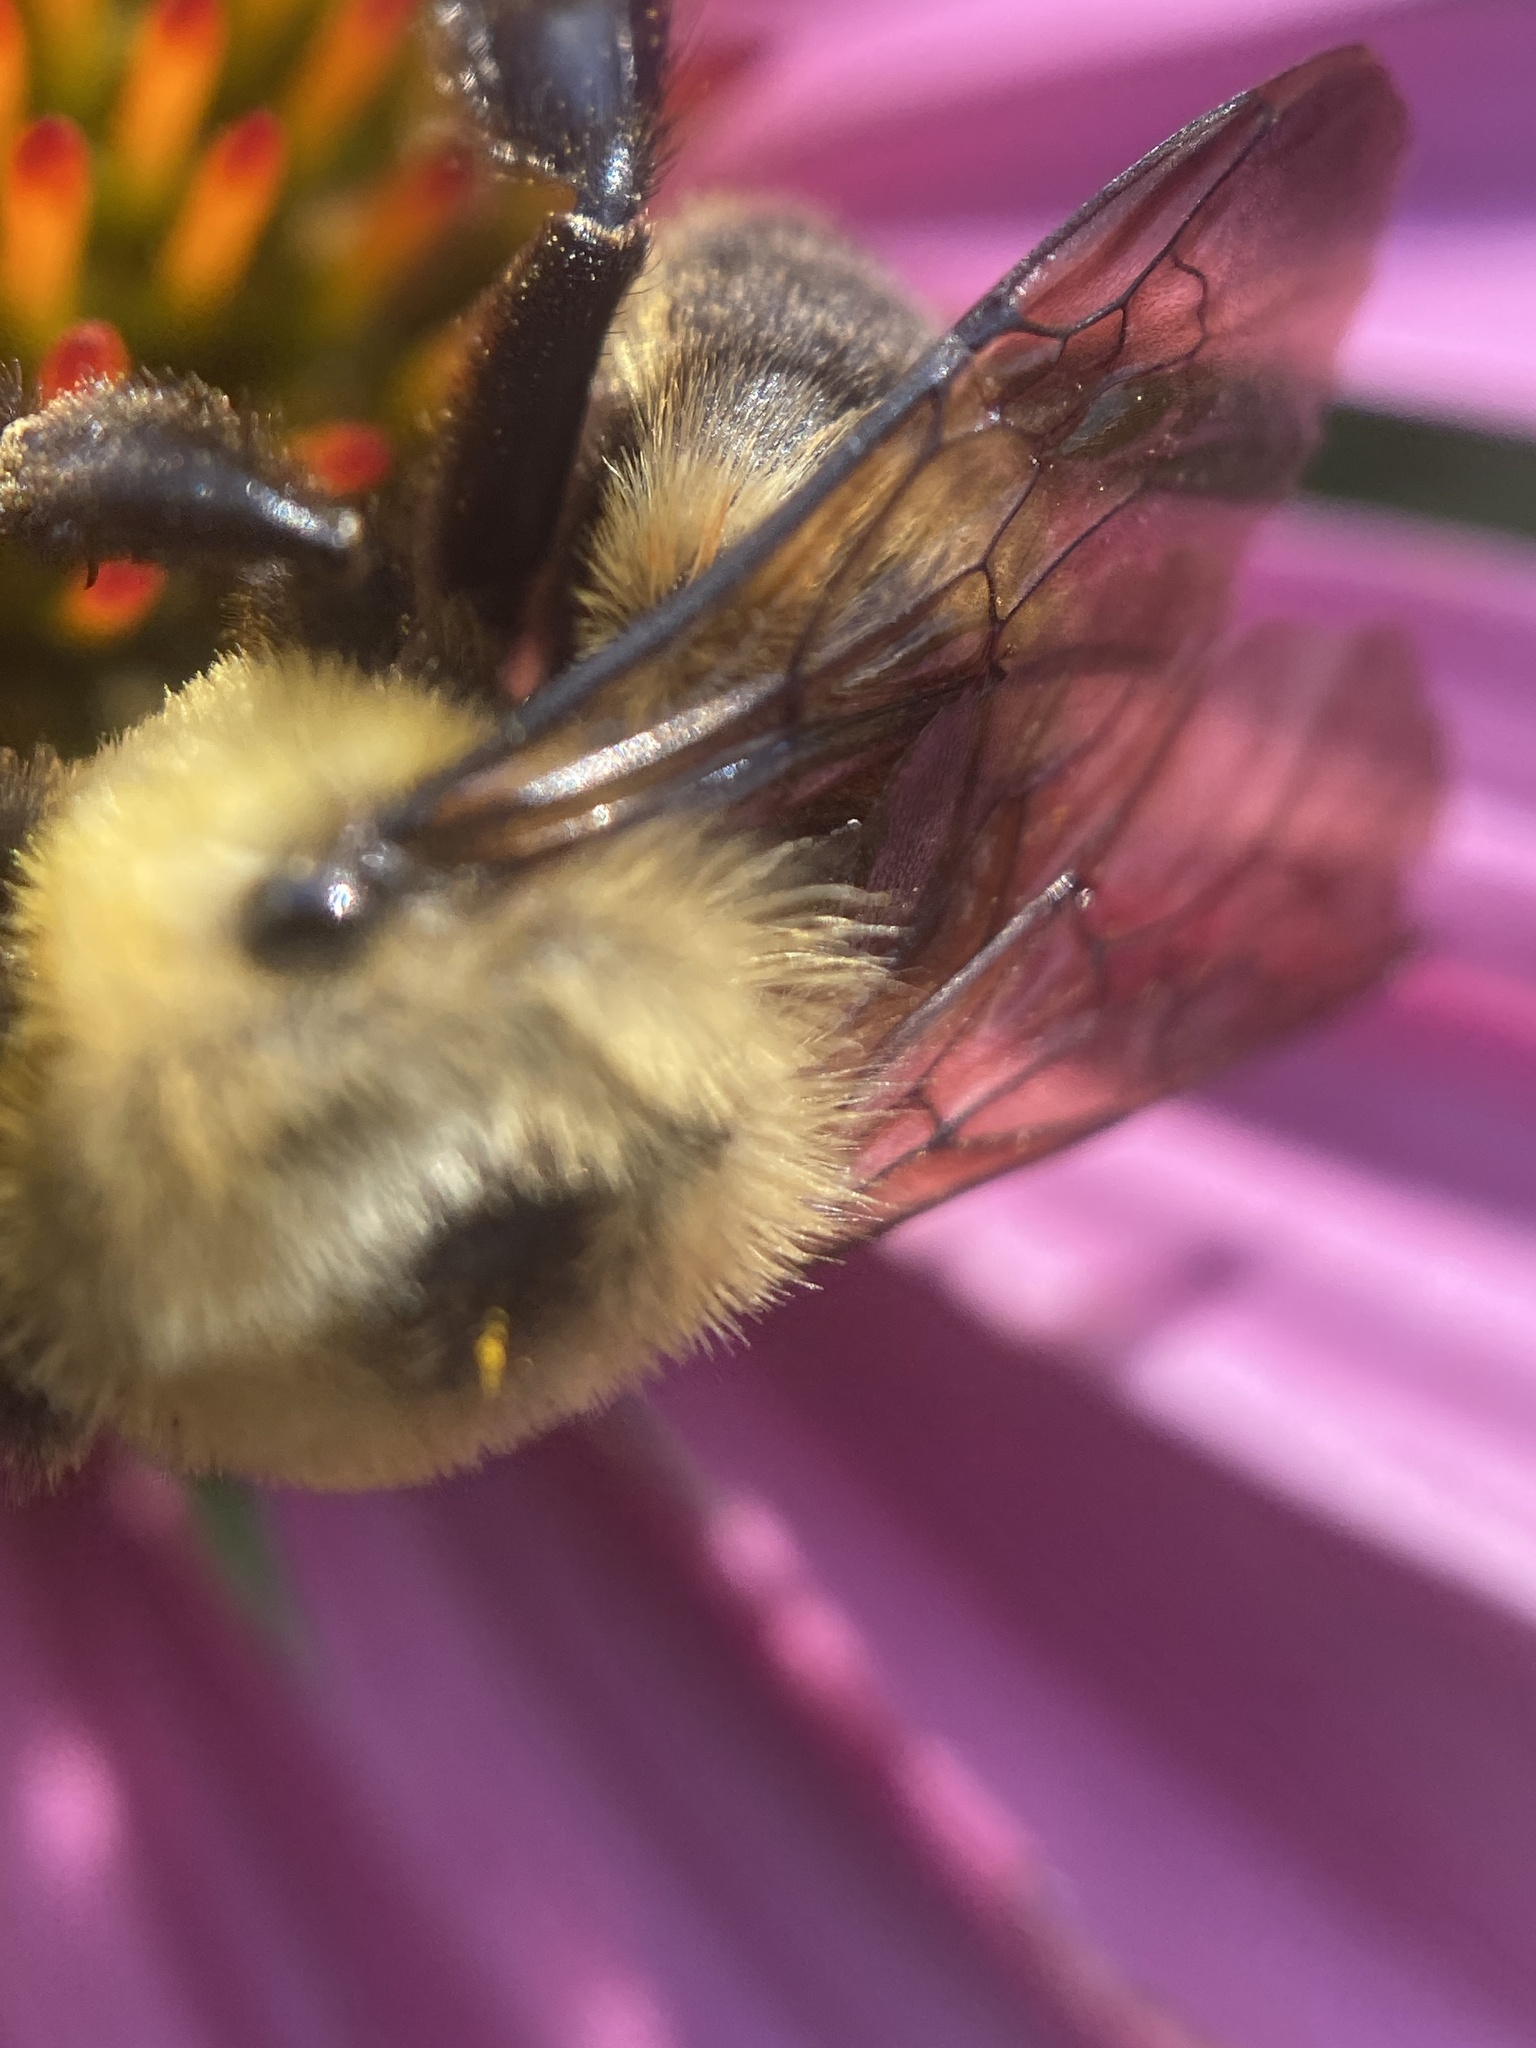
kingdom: Animalia
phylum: Arthropoda
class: Insecta
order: Hymenoptera
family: Apidae
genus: Bombus
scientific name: Bombus griseocollis
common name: Brown-belted bumble bee
